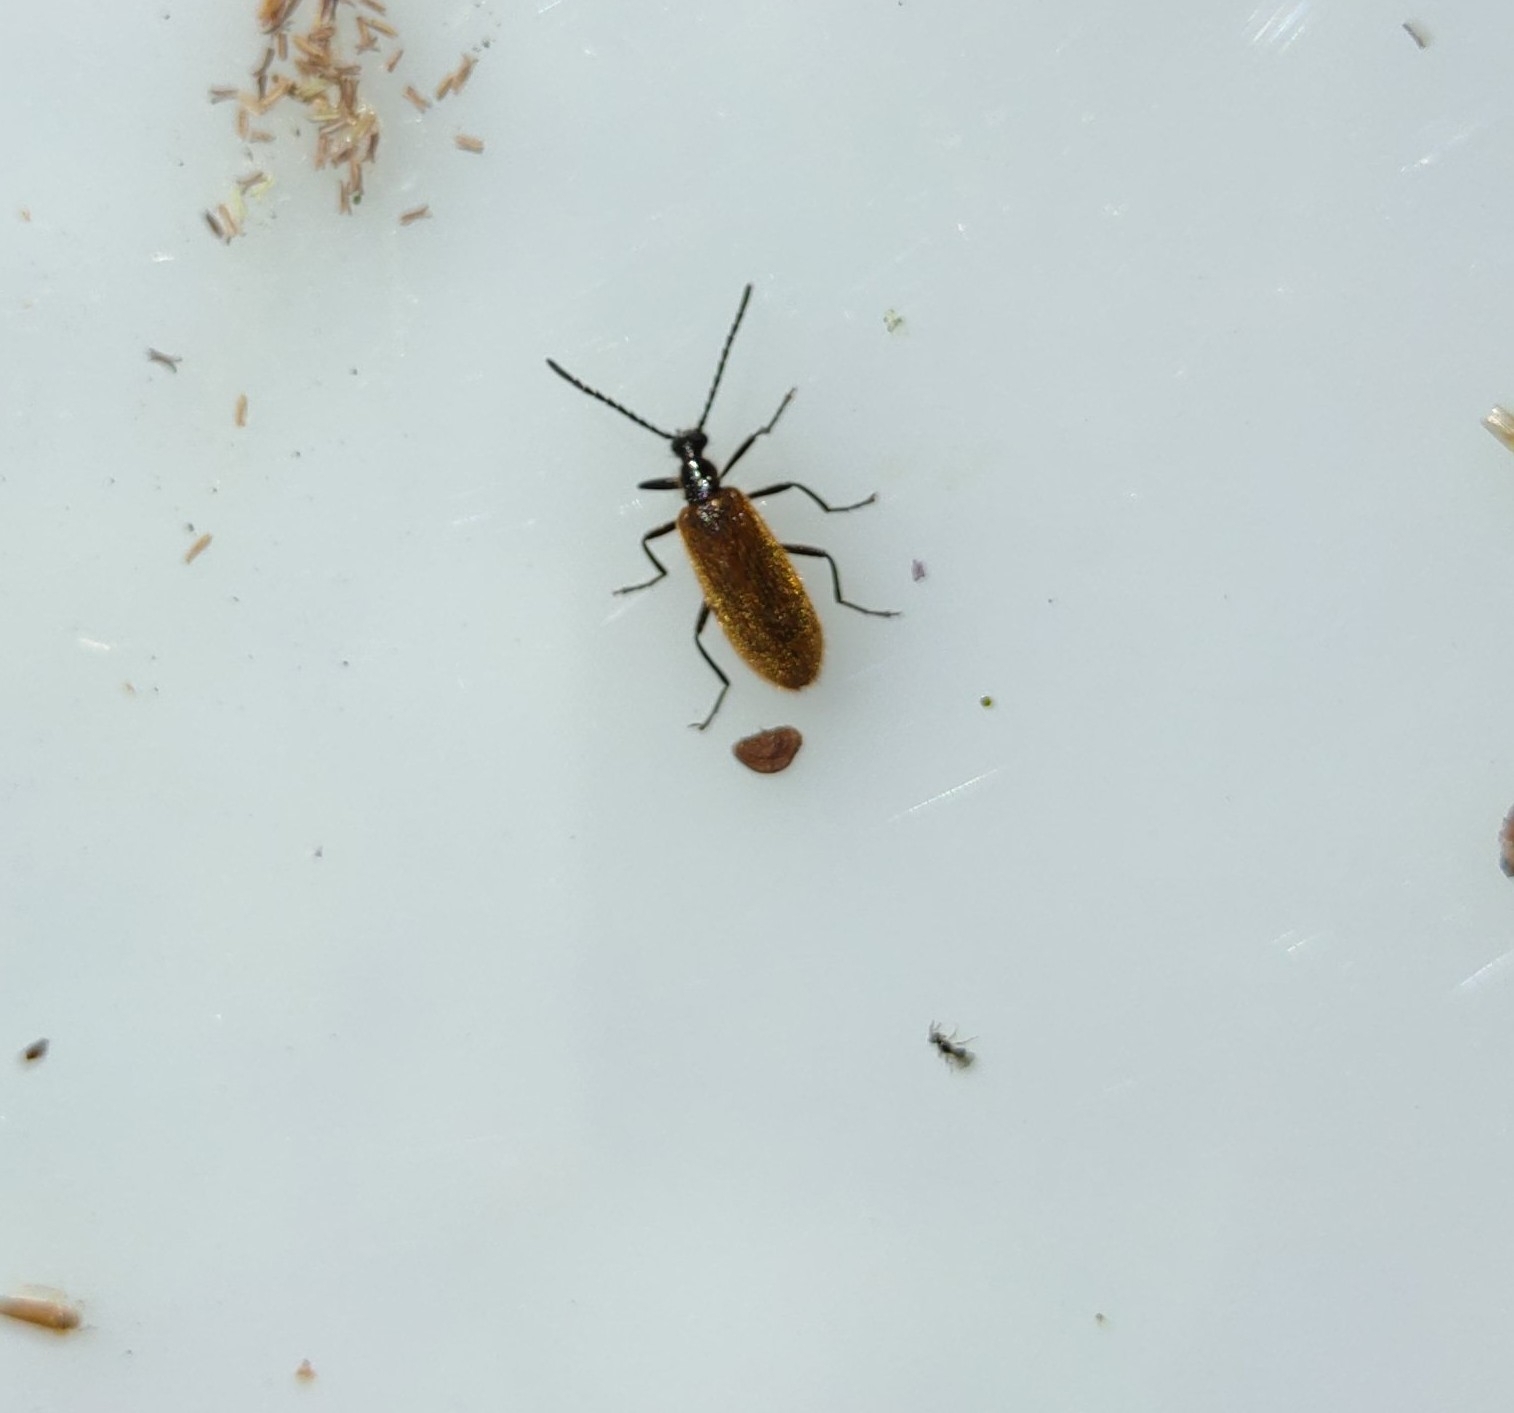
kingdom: Animalia
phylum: Arthropoda
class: Insecta
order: Coleoptera
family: Tenebrionidae
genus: Lagria
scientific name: Lagria hirta
